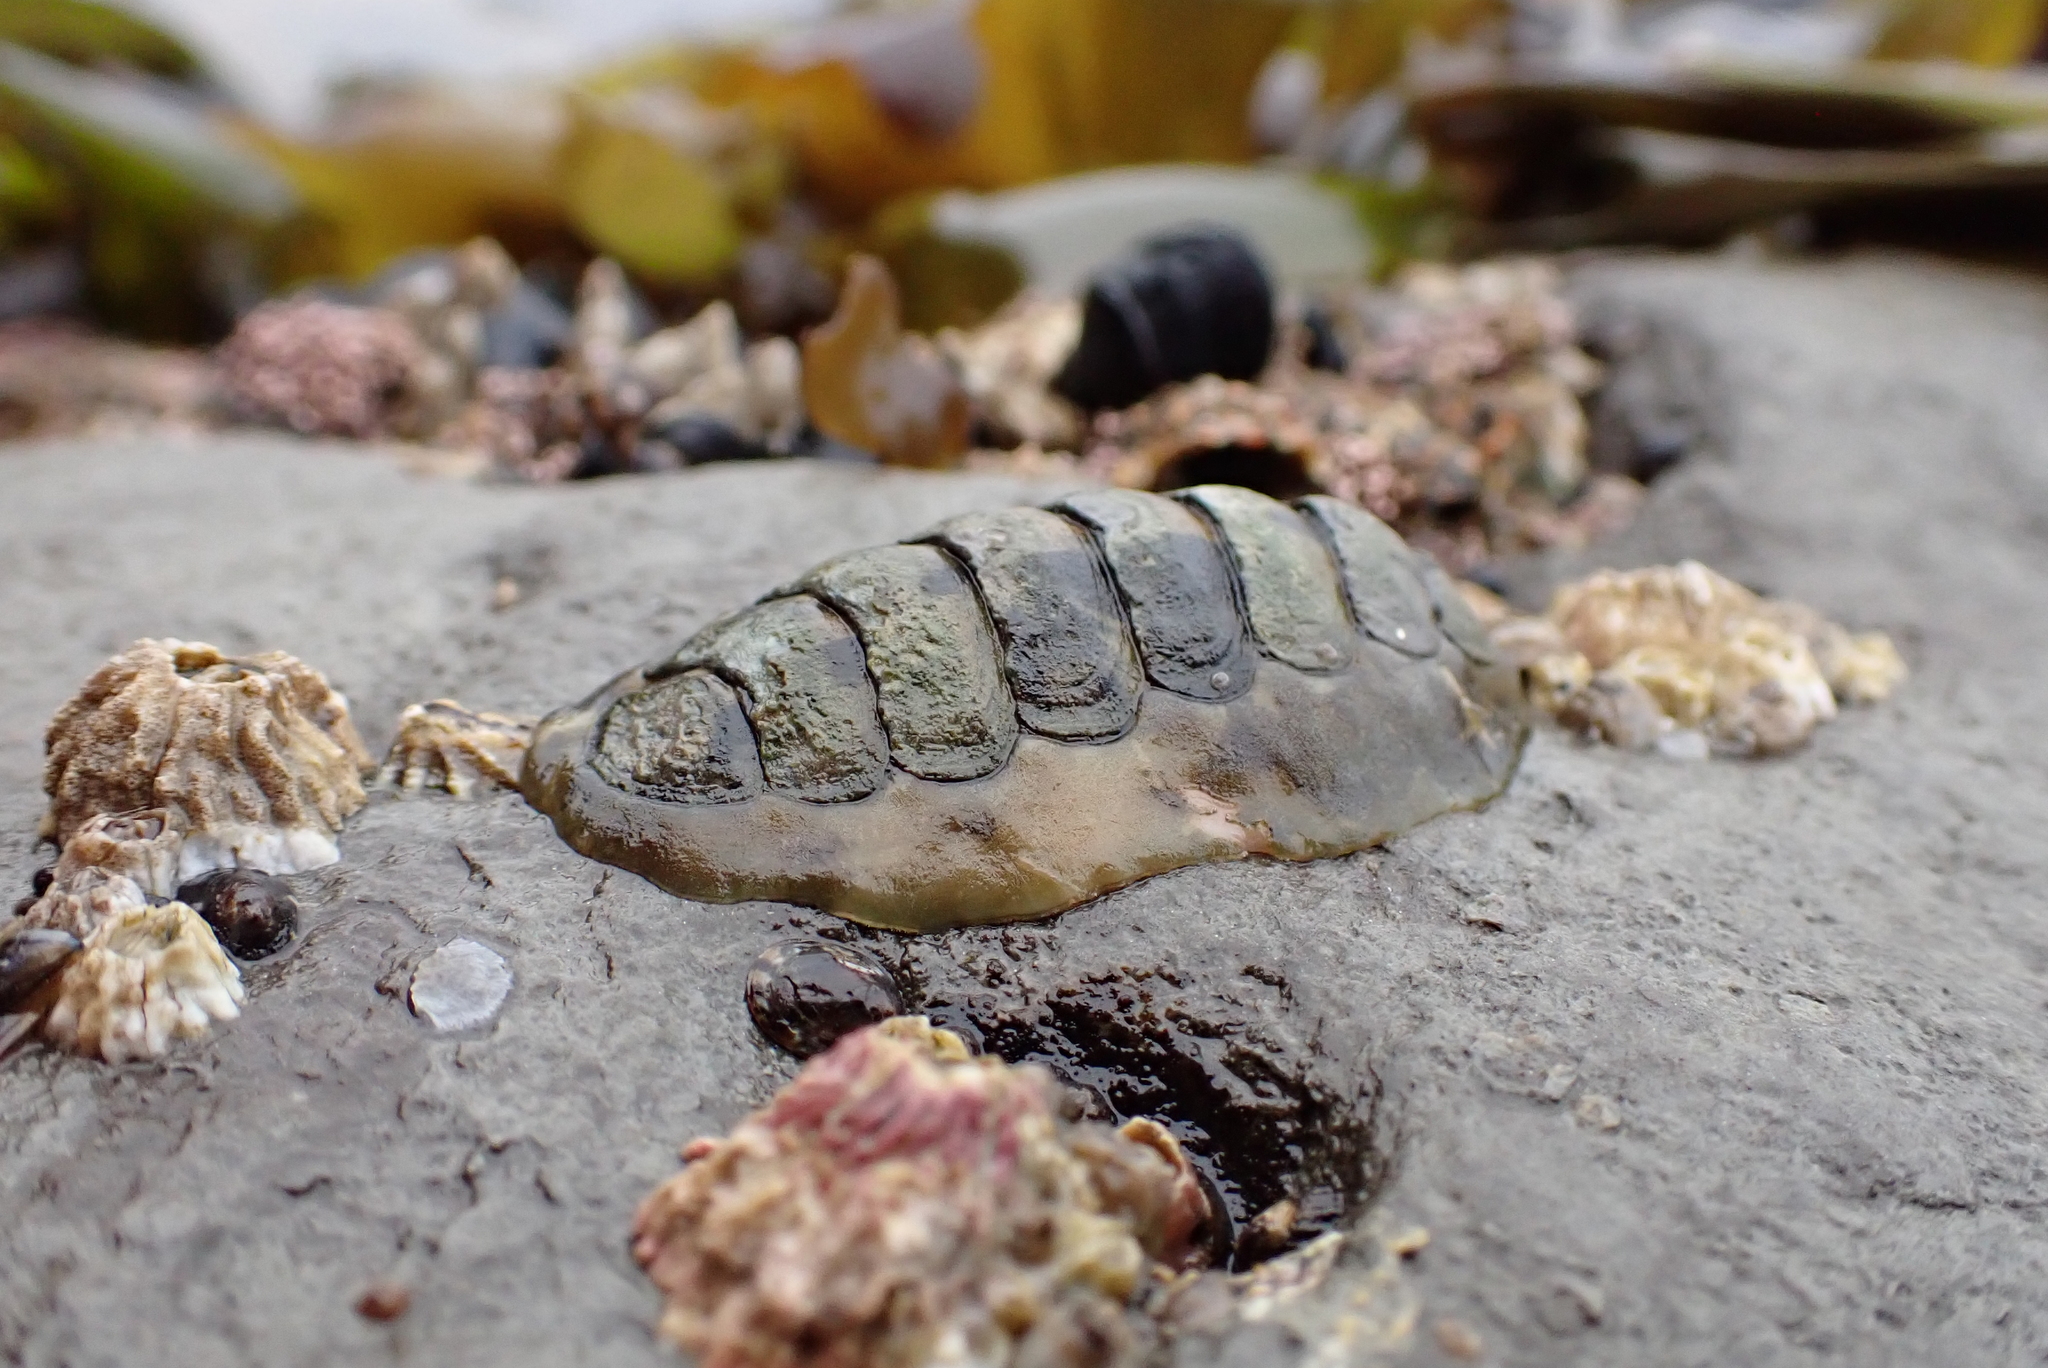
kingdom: Animalia
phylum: Mollusca
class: Polyplacophora
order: Chitonida
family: Tonicellidae
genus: Cyanoplax
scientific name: Cyanoplax hartwegii
